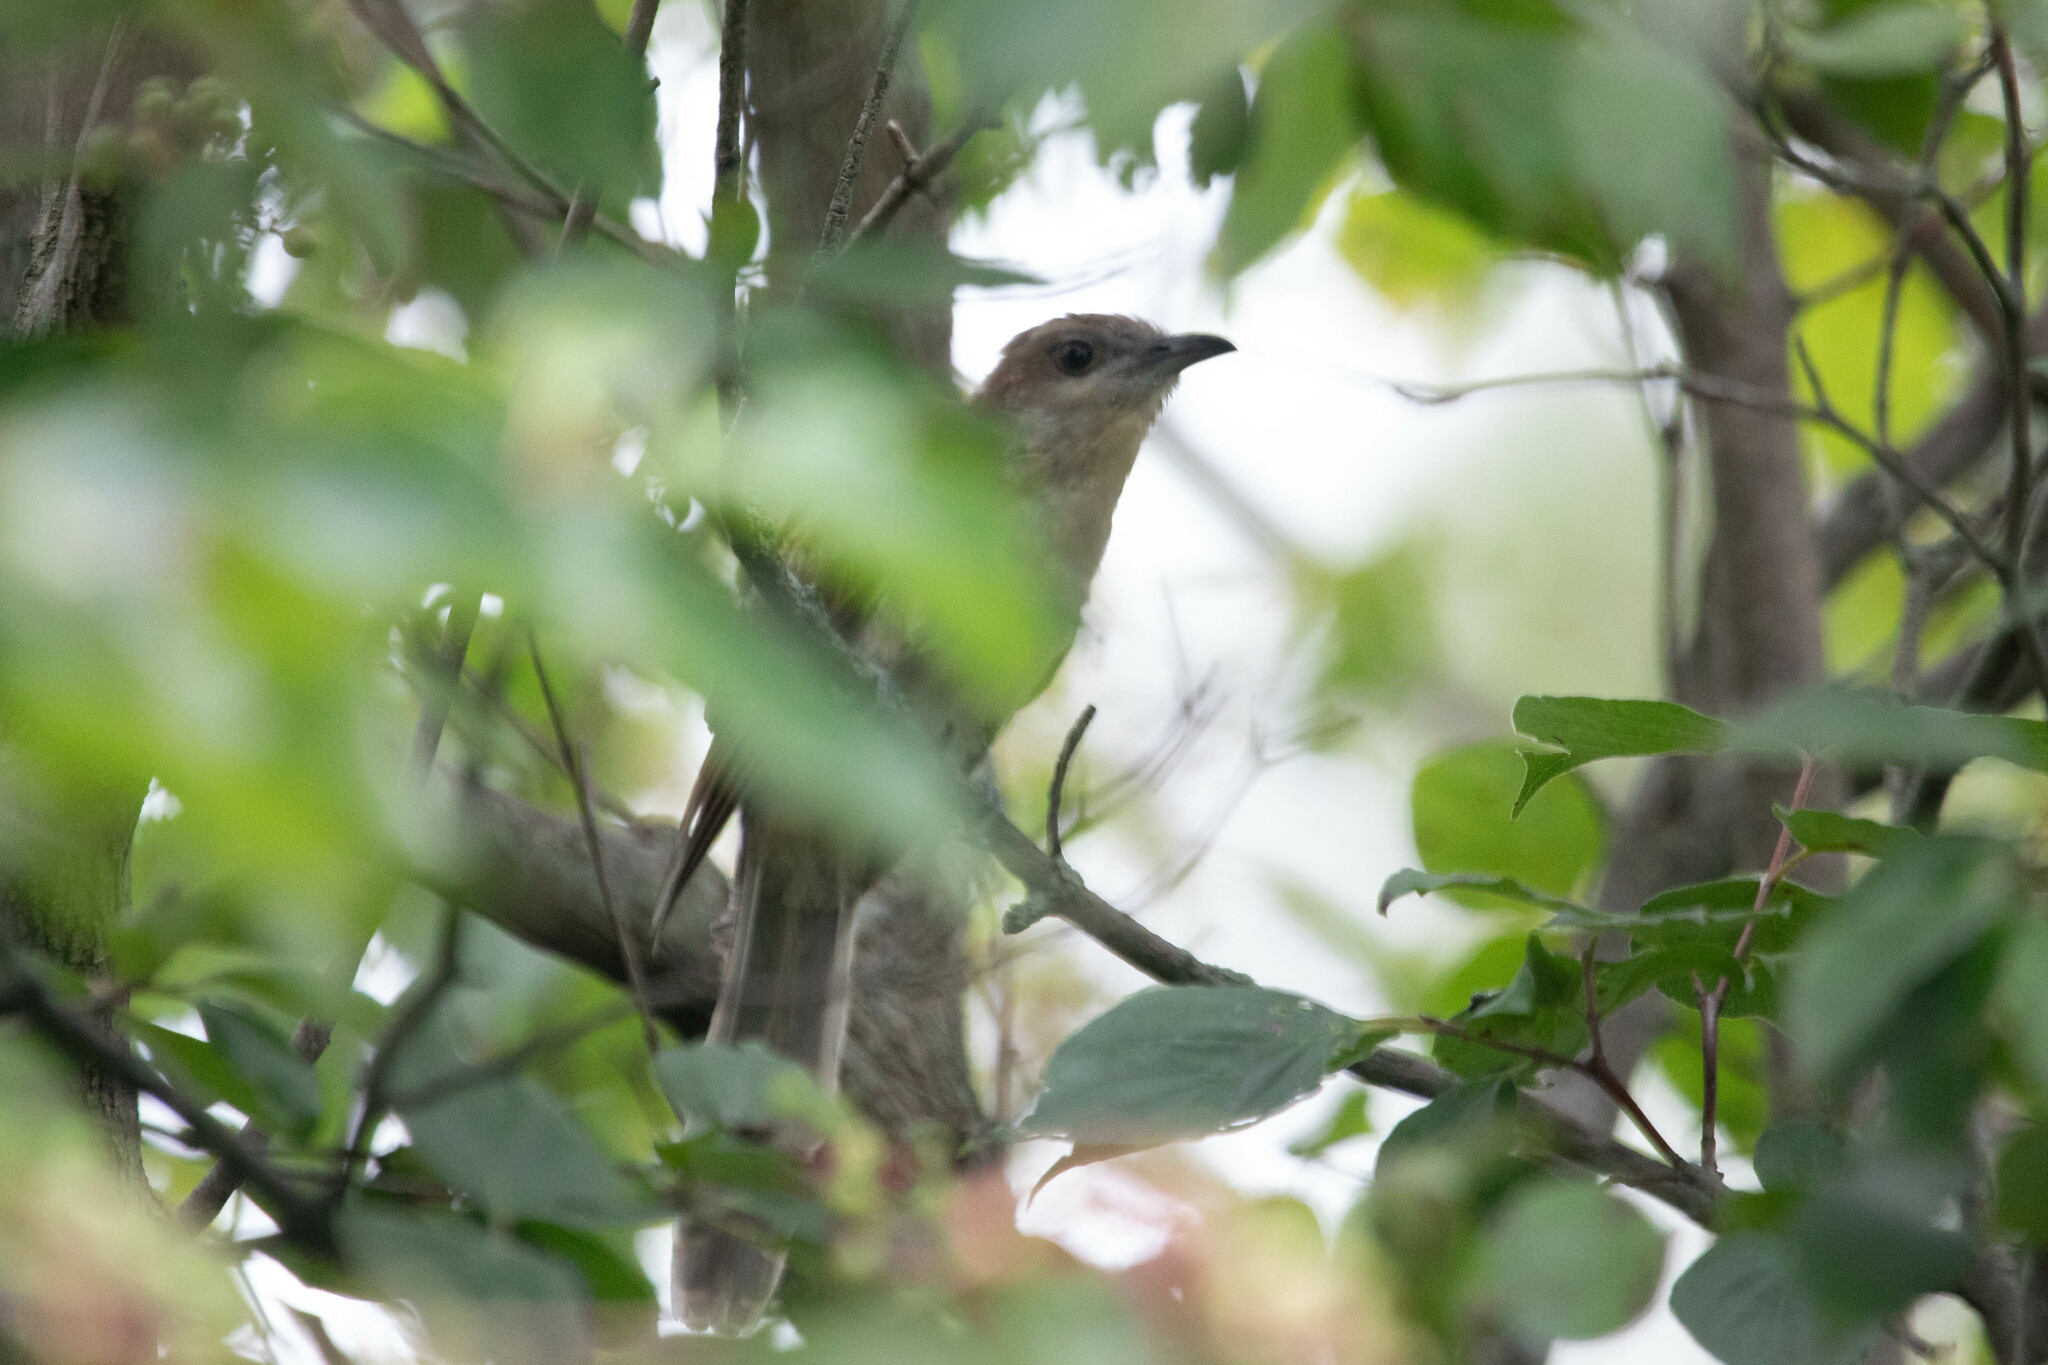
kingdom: Animalia
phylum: Chordata
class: Aves
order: Cuculiformes
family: Cuculidae
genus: Coccyzus
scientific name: Coccyzus erythropthalmus
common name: Black-billed cuckoo
